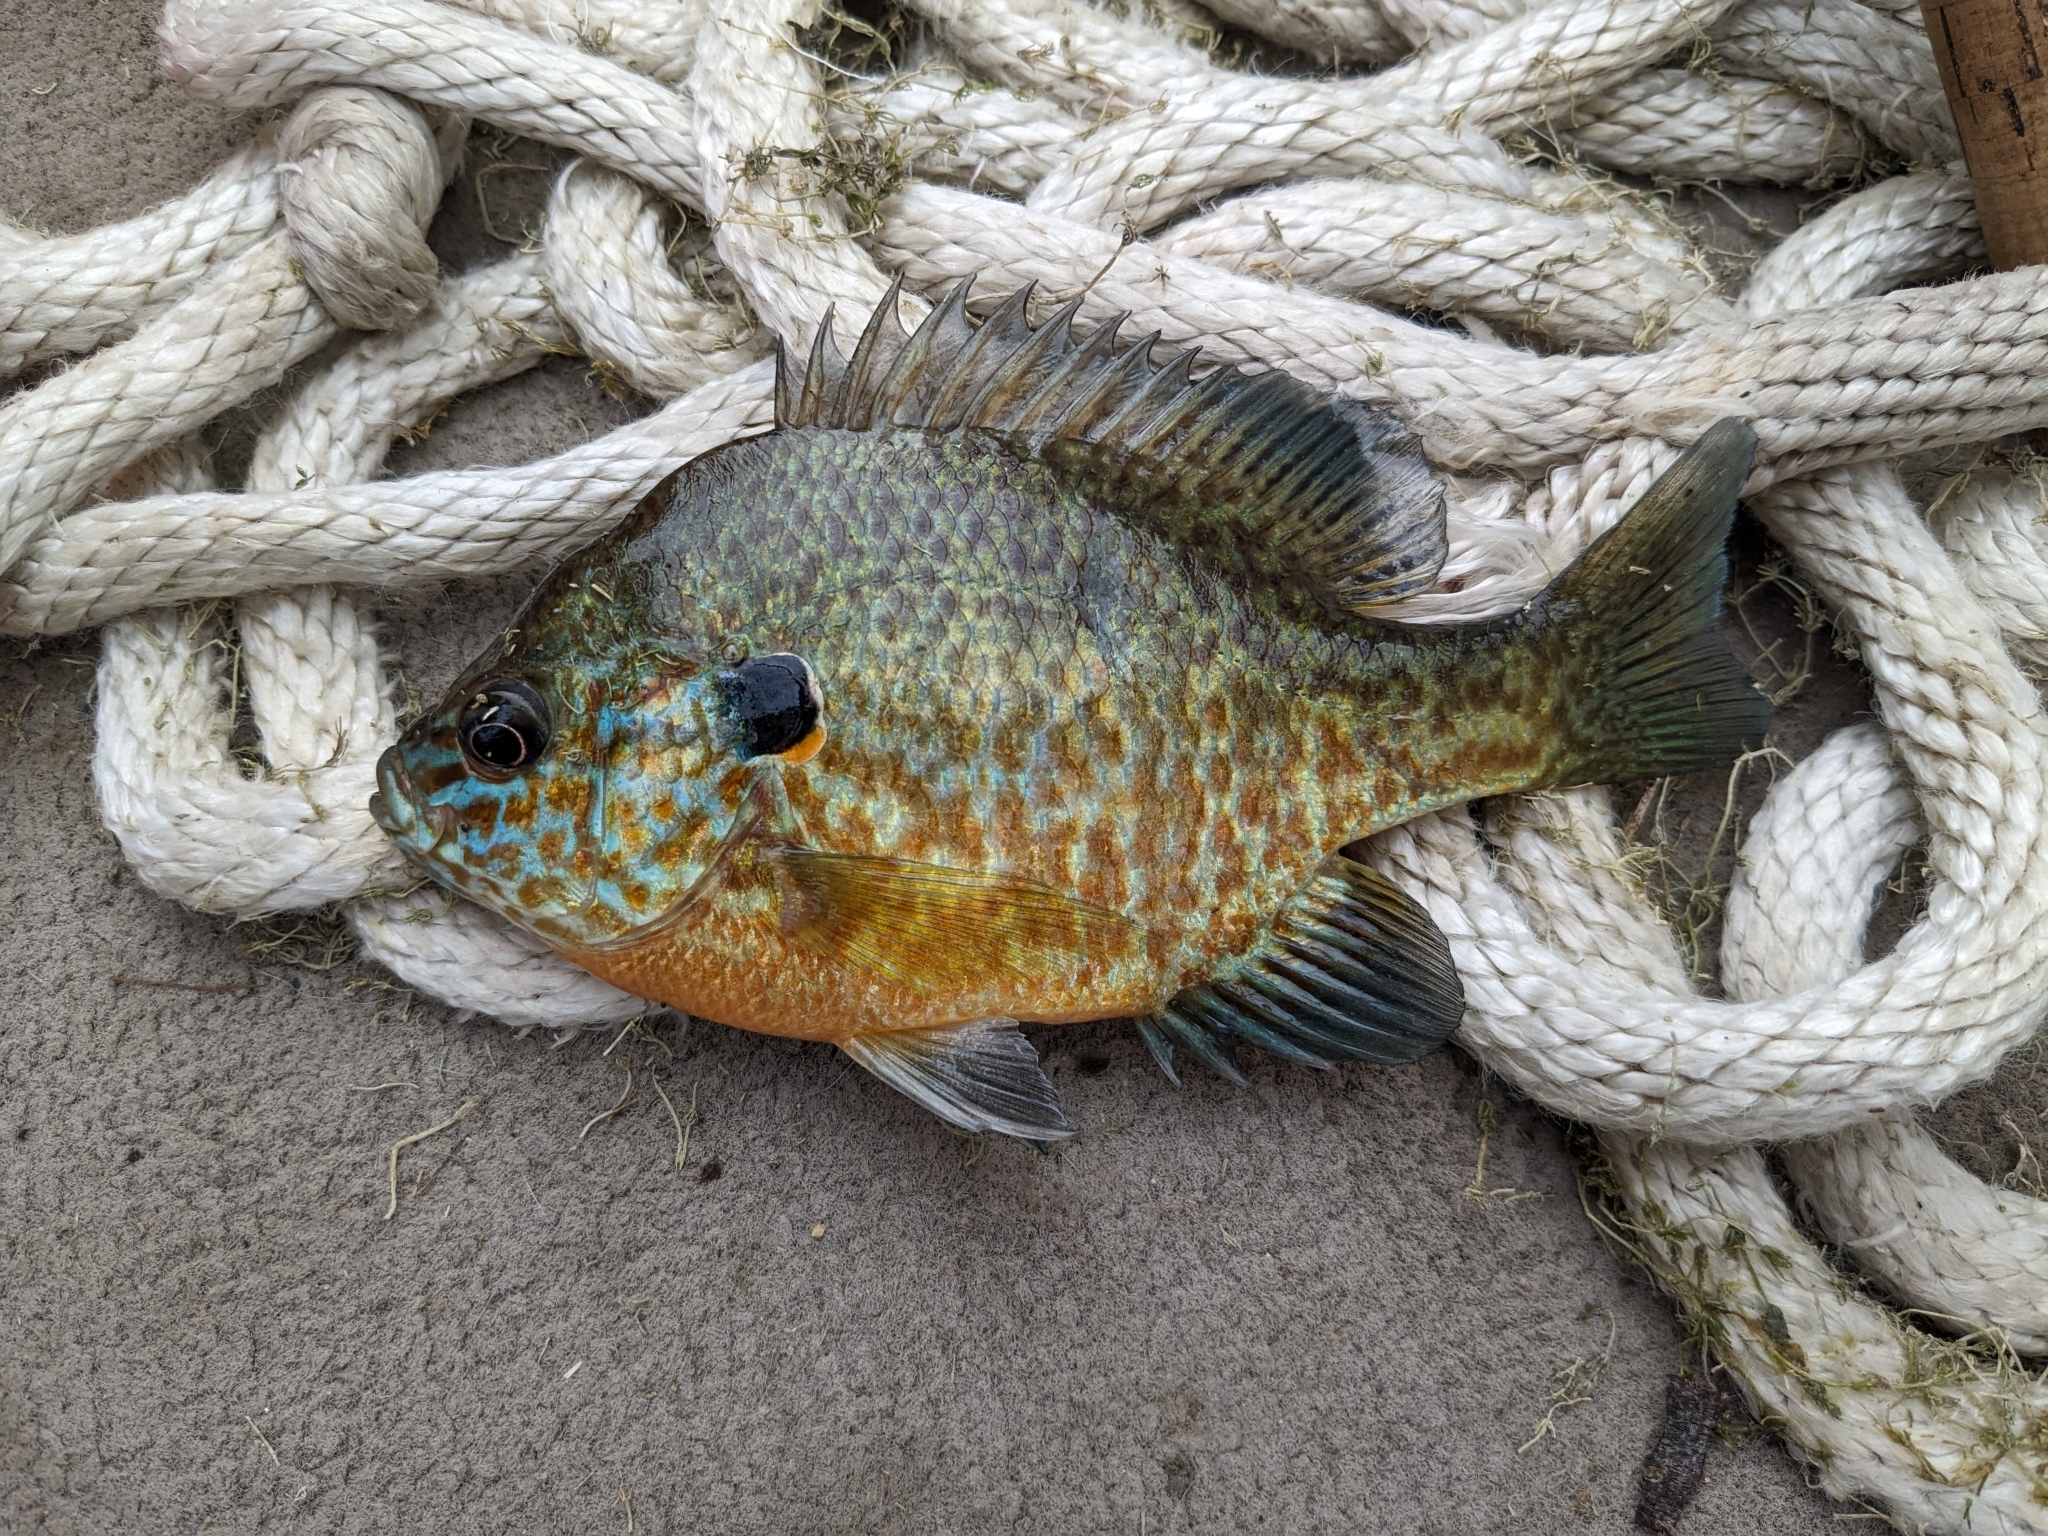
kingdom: Animalia
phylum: Chordata
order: Perciformes
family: Centrarchidae
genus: Lepomis
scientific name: Lepomis
